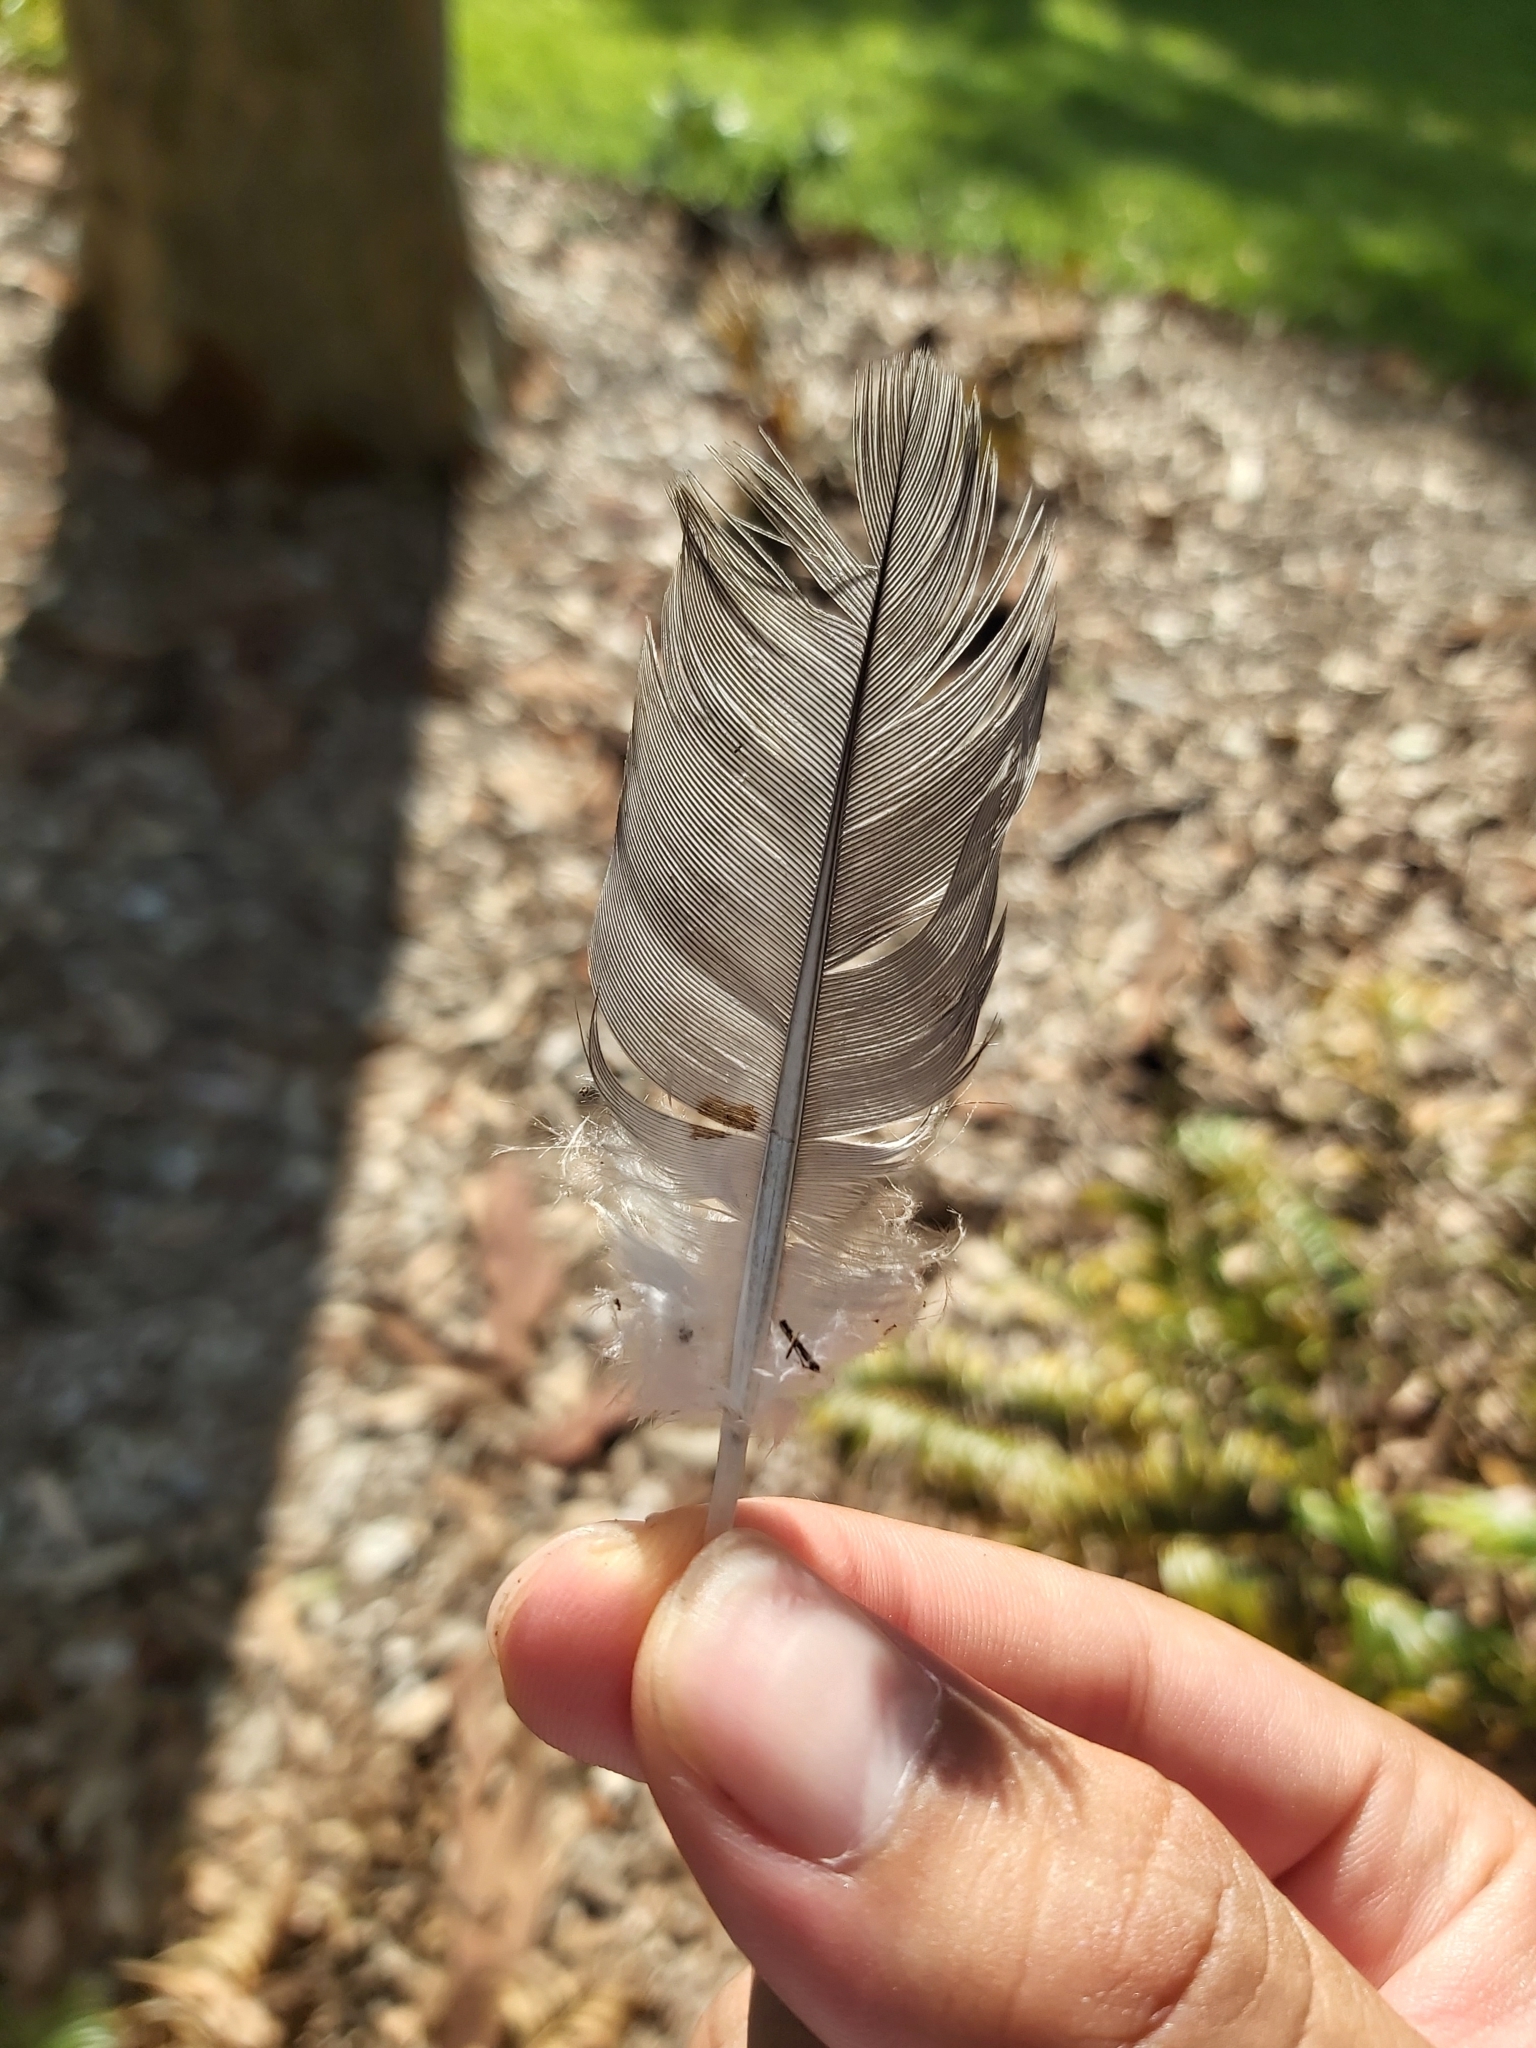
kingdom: Animalia
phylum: Chordata
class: Aves
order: Columbiformes
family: Columbidae
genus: Lopholaimus
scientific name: Lopholaimus antarcticus
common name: Topknot pigeon
